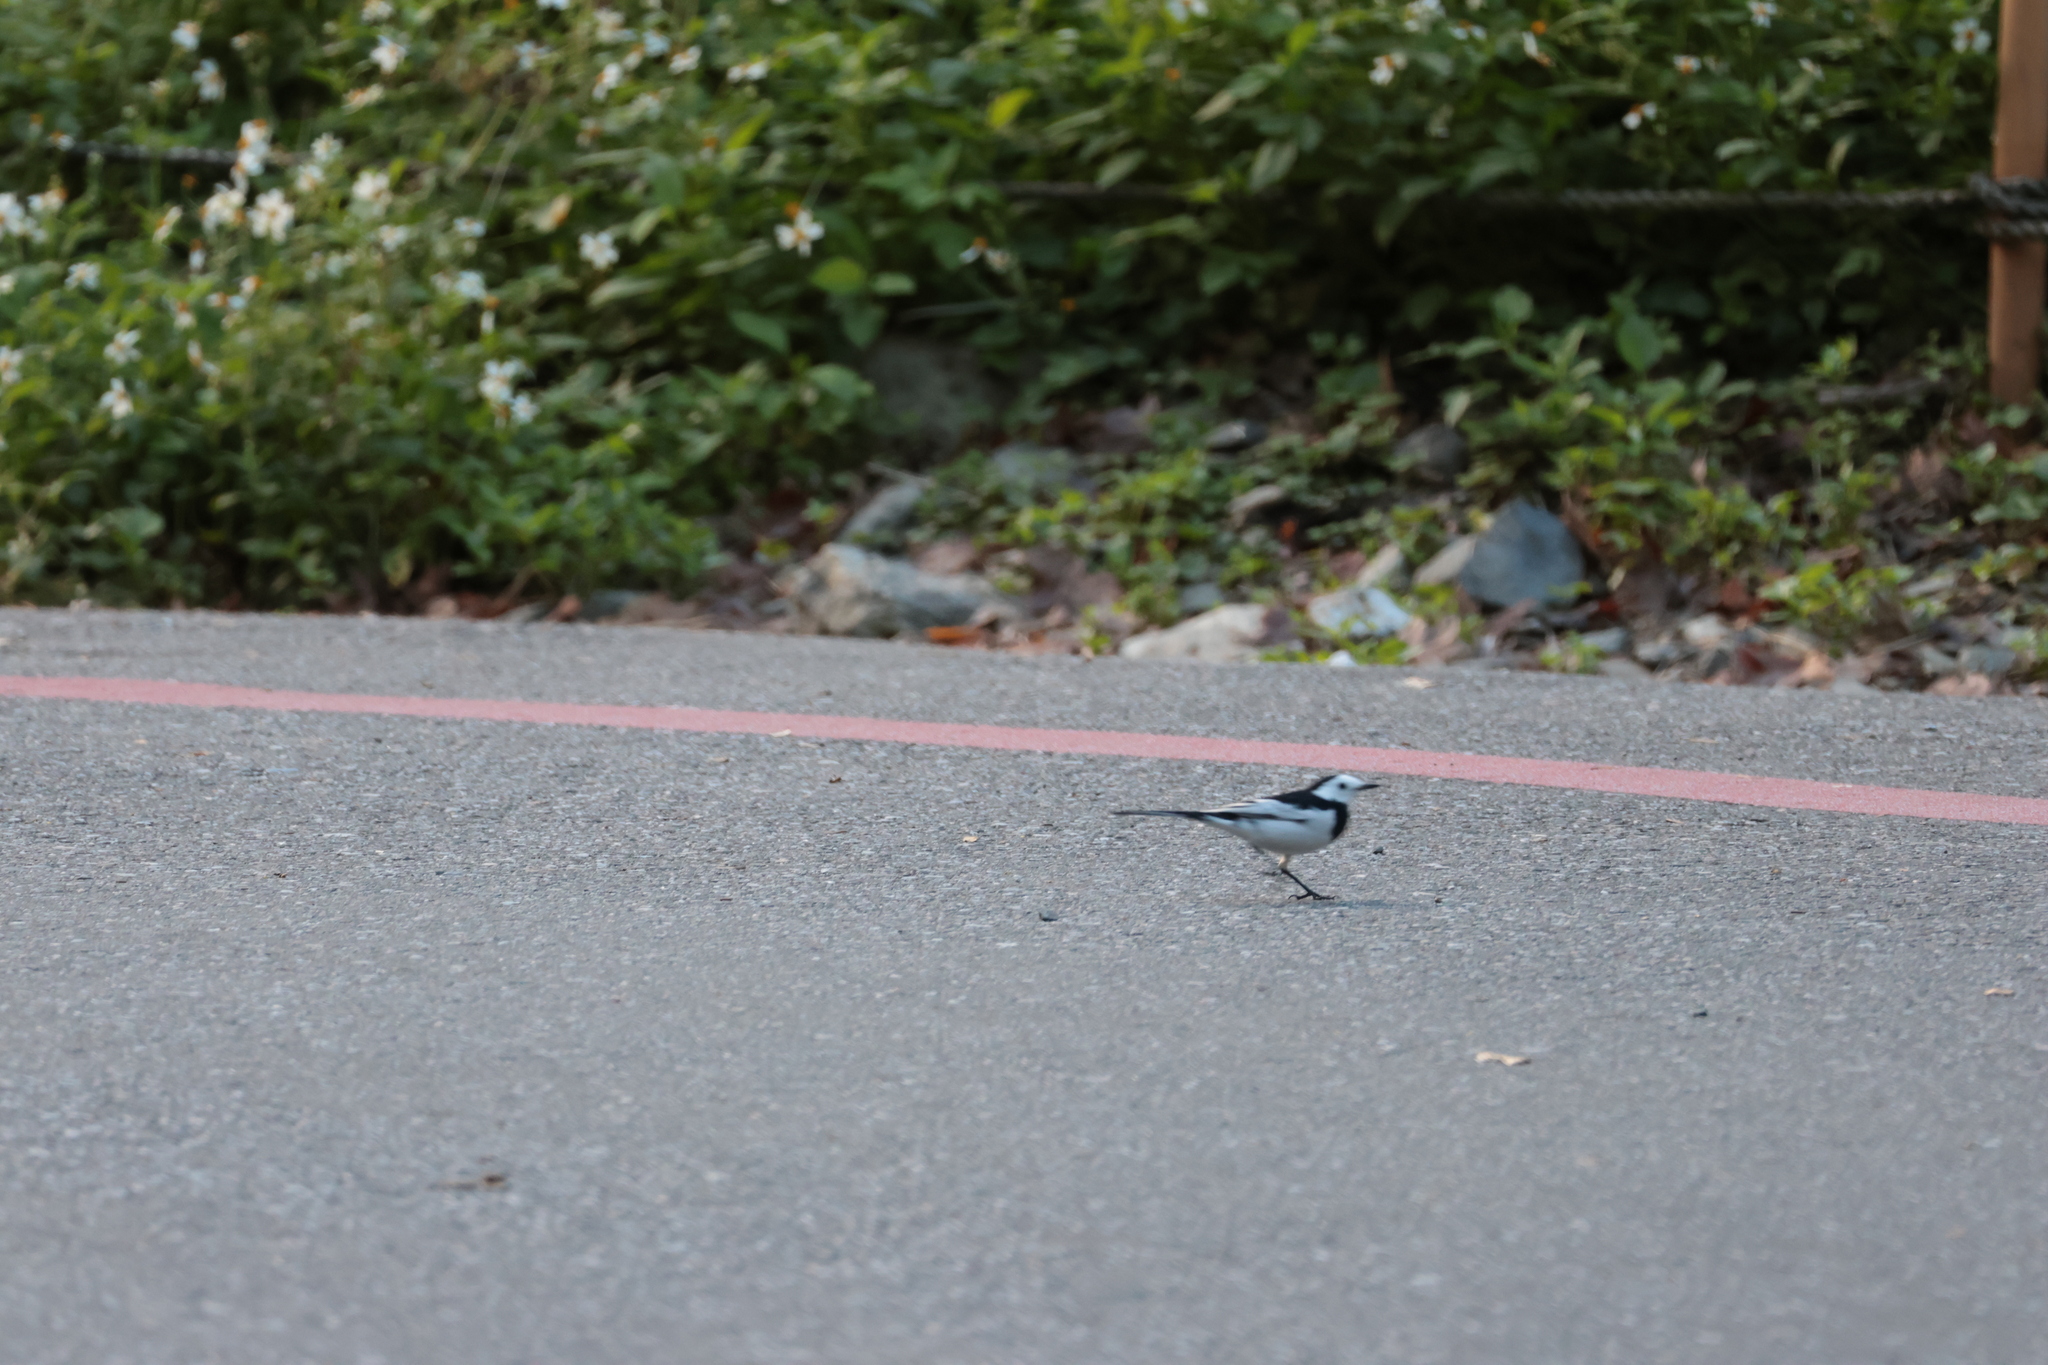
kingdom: Animalia
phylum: Chordata
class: Aves
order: Passeriformes
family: Motacillidae
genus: Motacilla
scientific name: Motacilla alba
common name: White wagtail
